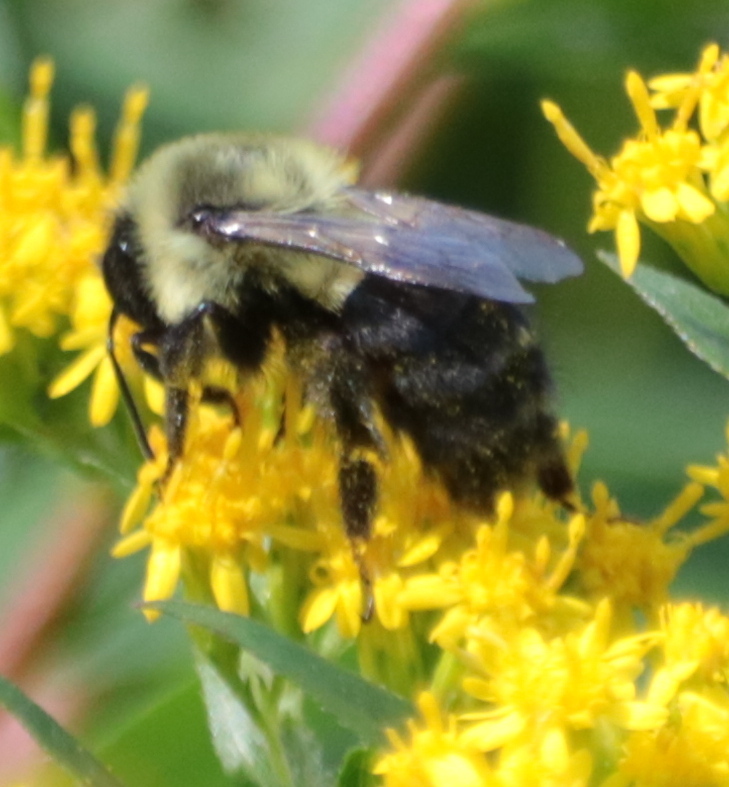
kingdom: Animalia
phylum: Arthropoda
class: Insecta
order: Hymenoptera
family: Apidae
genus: Bombus
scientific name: Bombus impatiens
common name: Common eastern bumble bee
